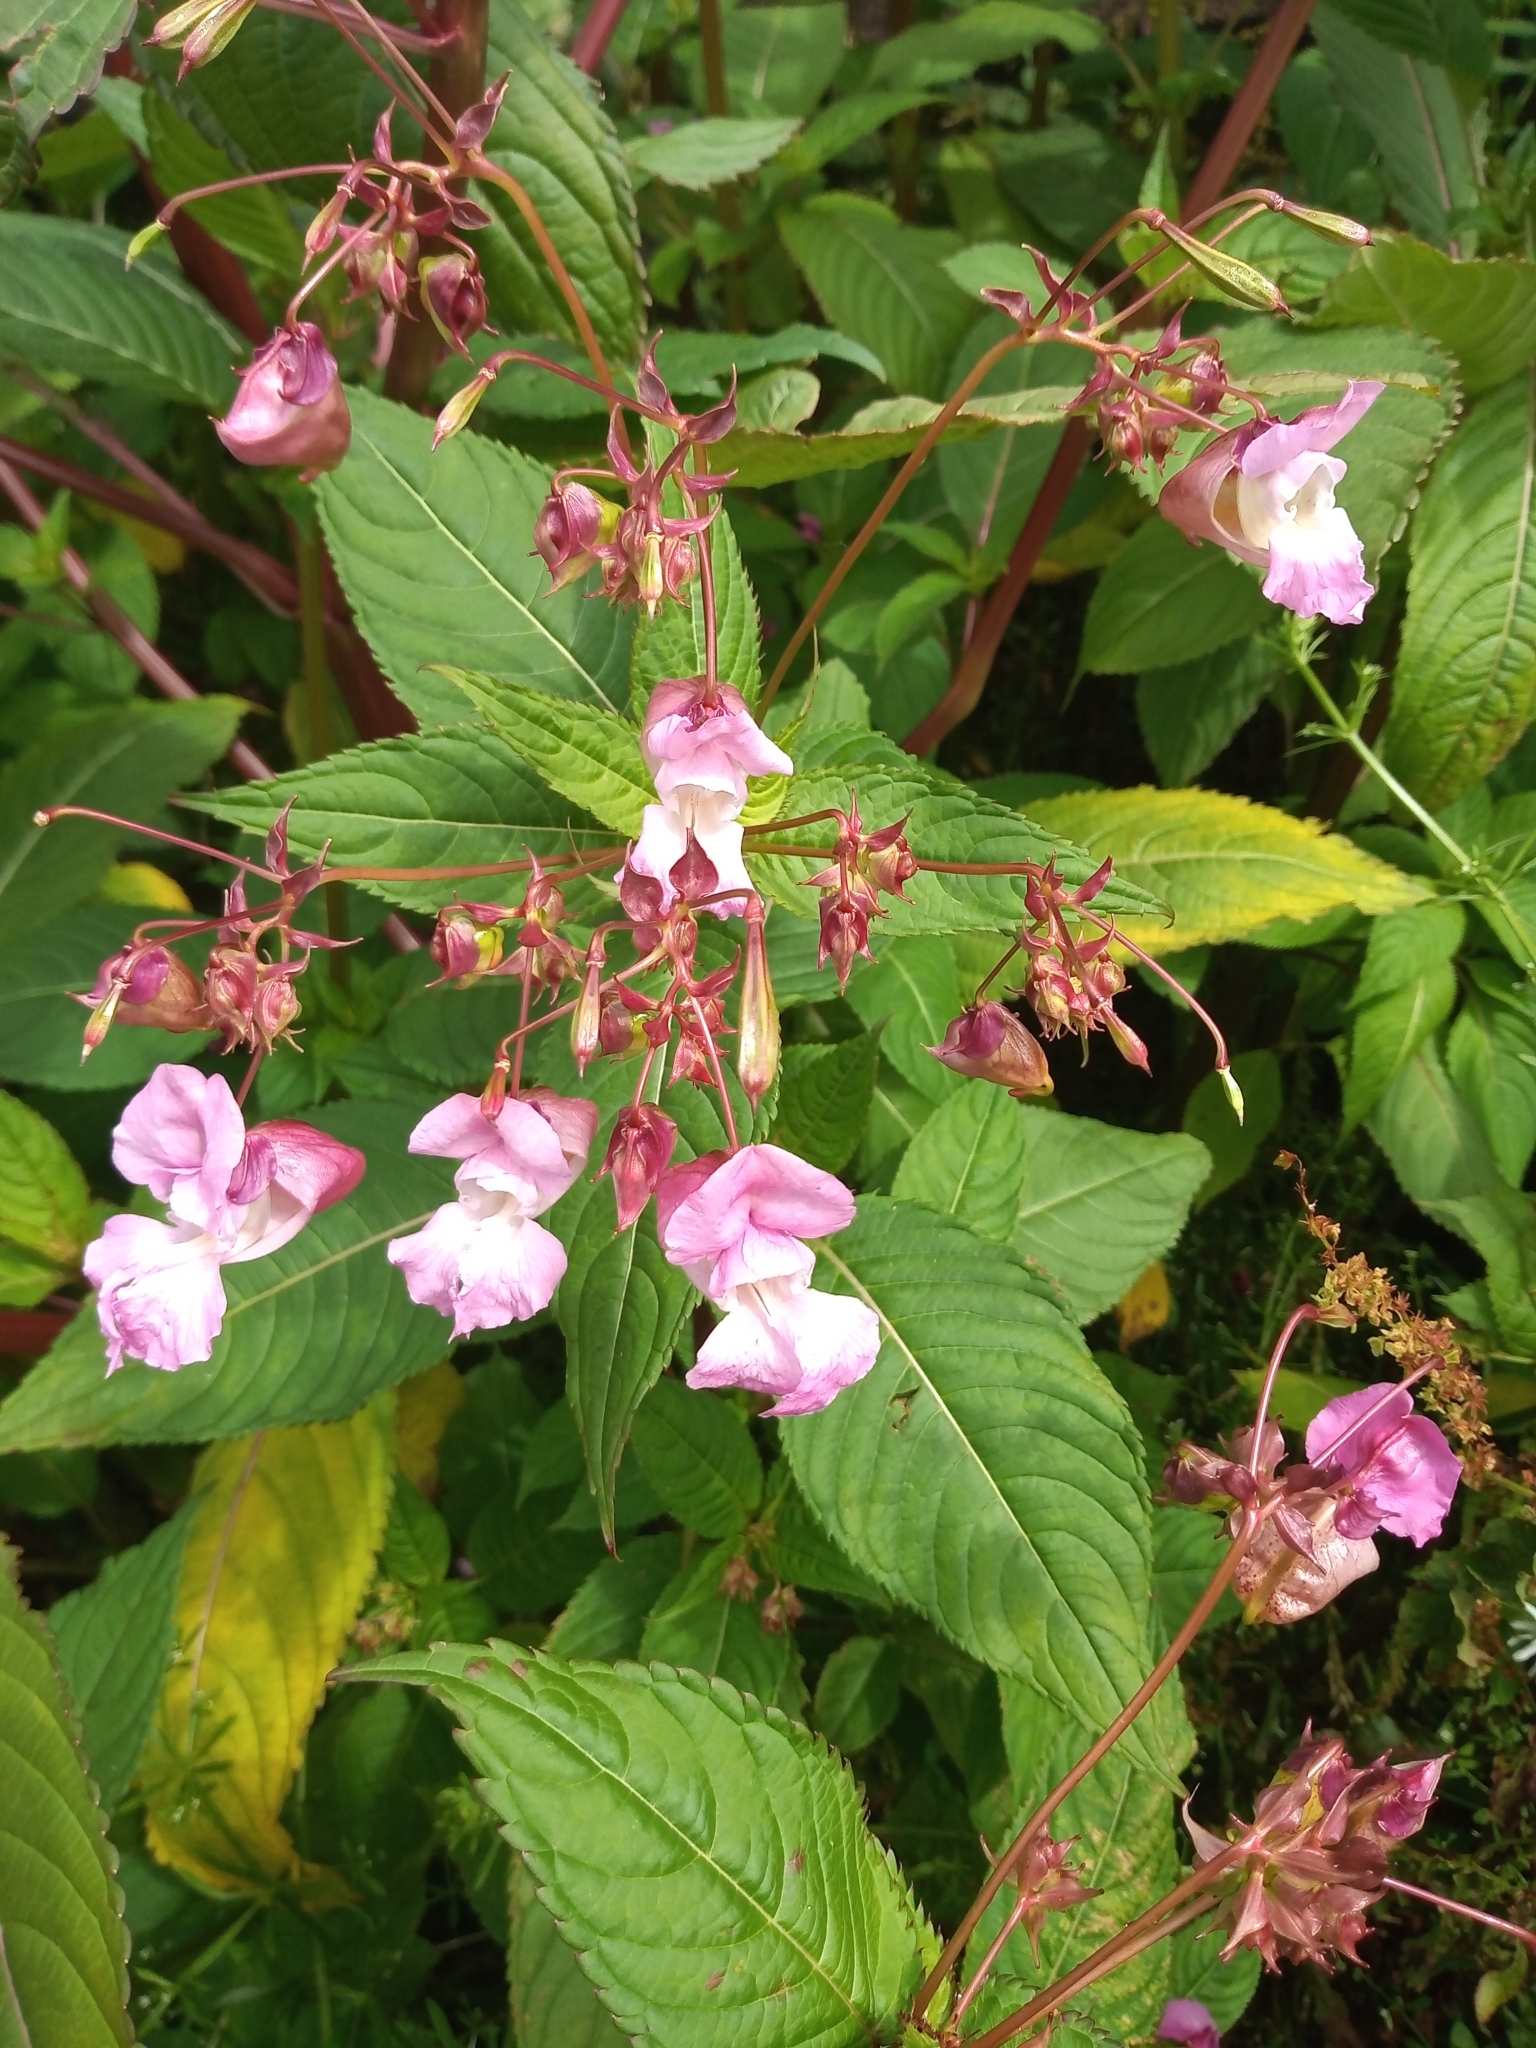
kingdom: Plantae
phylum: Tracheophyta
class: Magnoliopsida
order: Ericales
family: Balsaminaceae
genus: Impatiens
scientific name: Impatiens glandulifera
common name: Himalayan balsam
